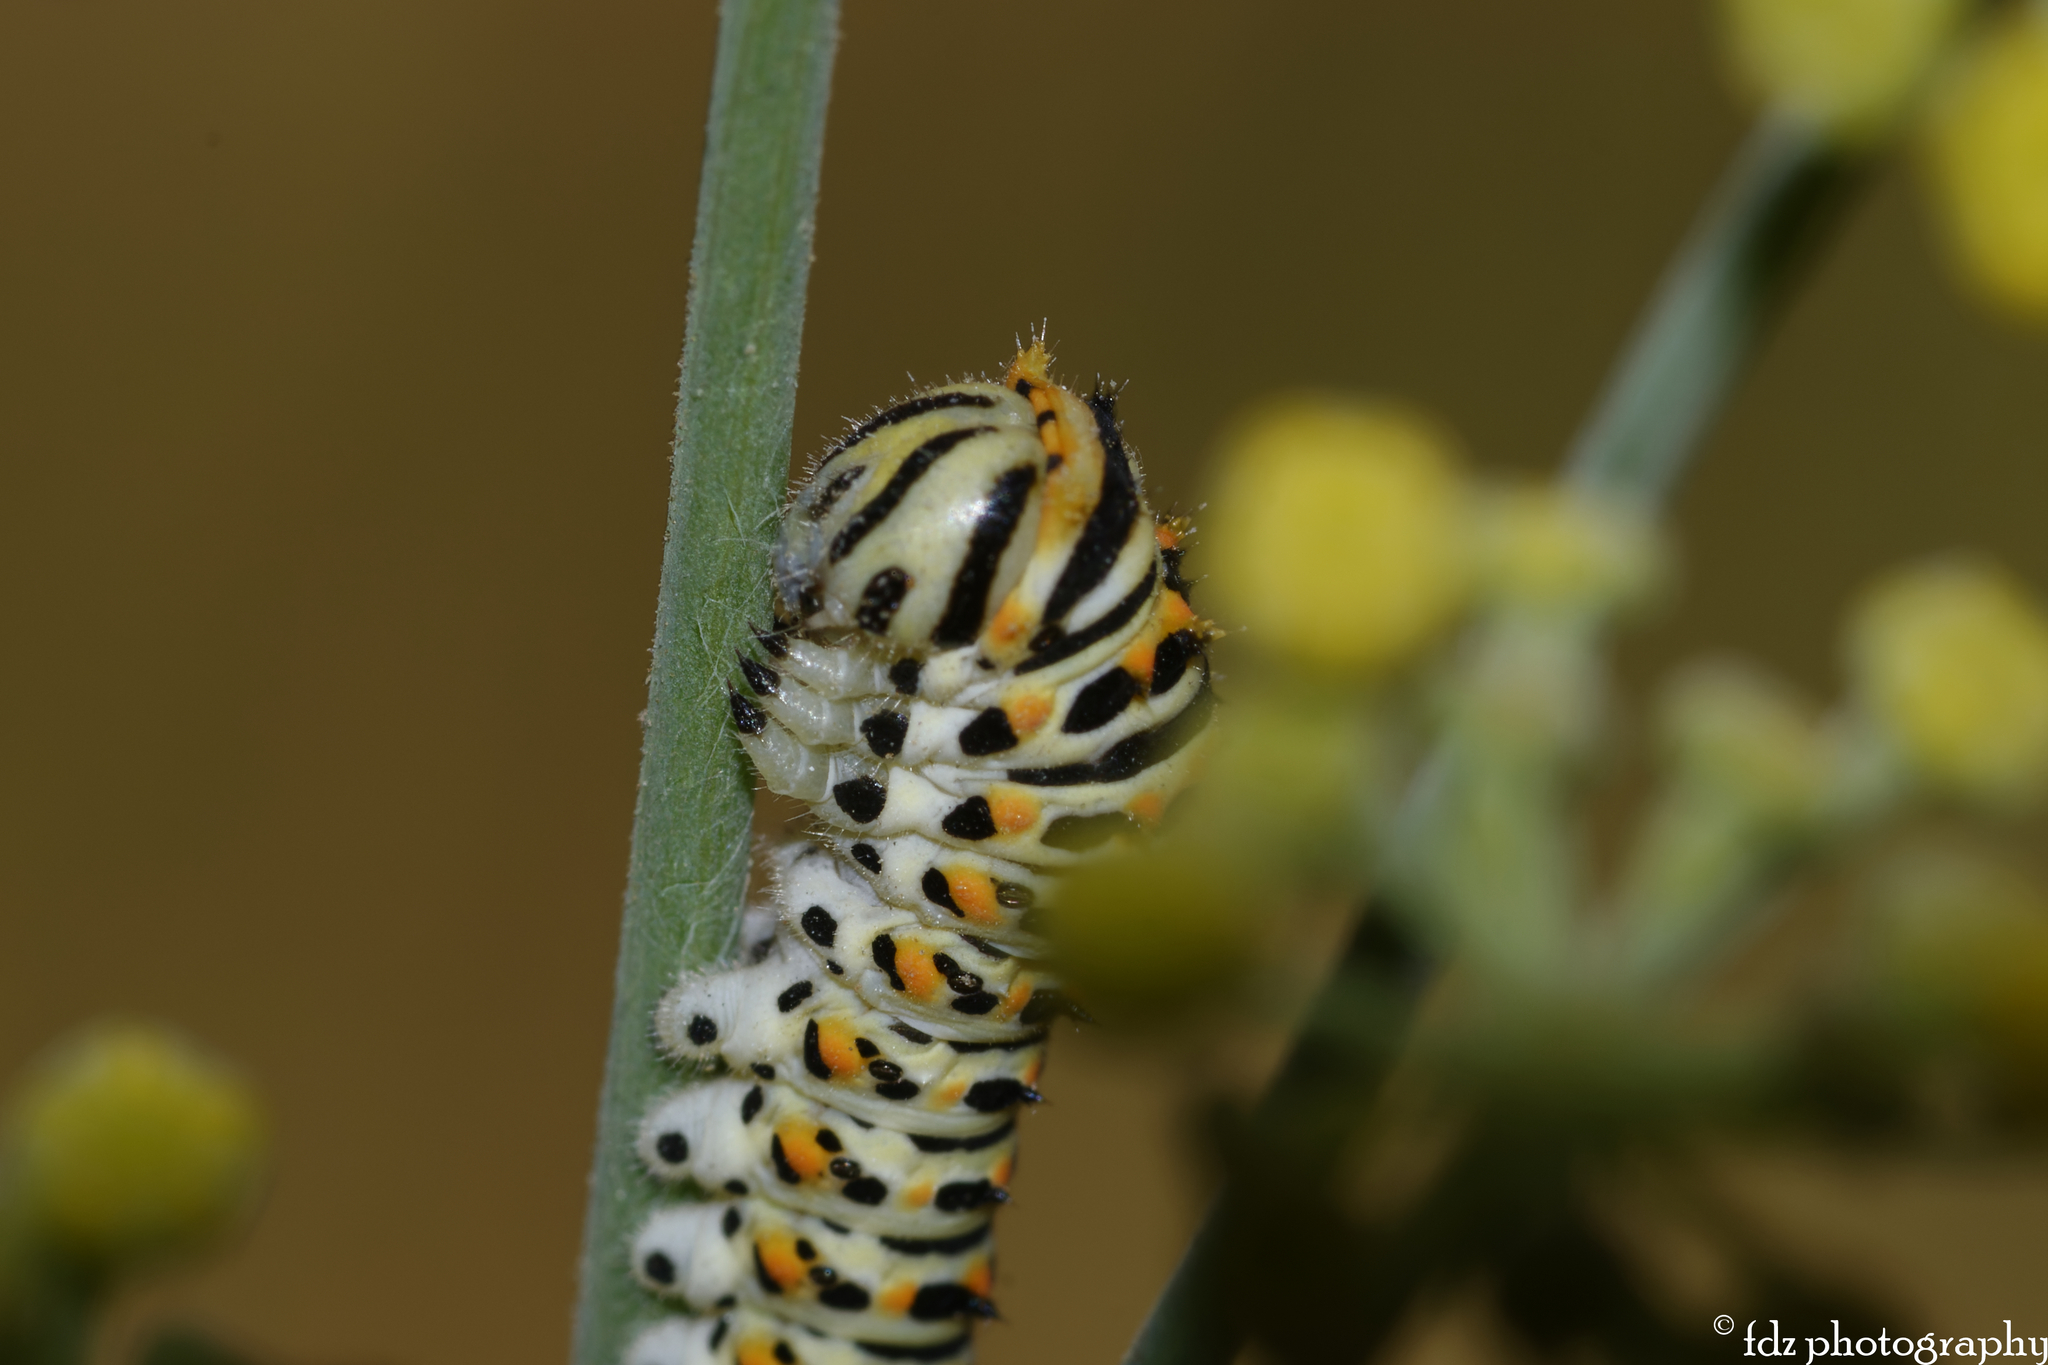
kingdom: Animalia
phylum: Arthropoda
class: Insecta
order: Lepidoptera
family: Papilionidae
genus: Papilio
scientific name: Papilio machaon
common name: Swallowtail
